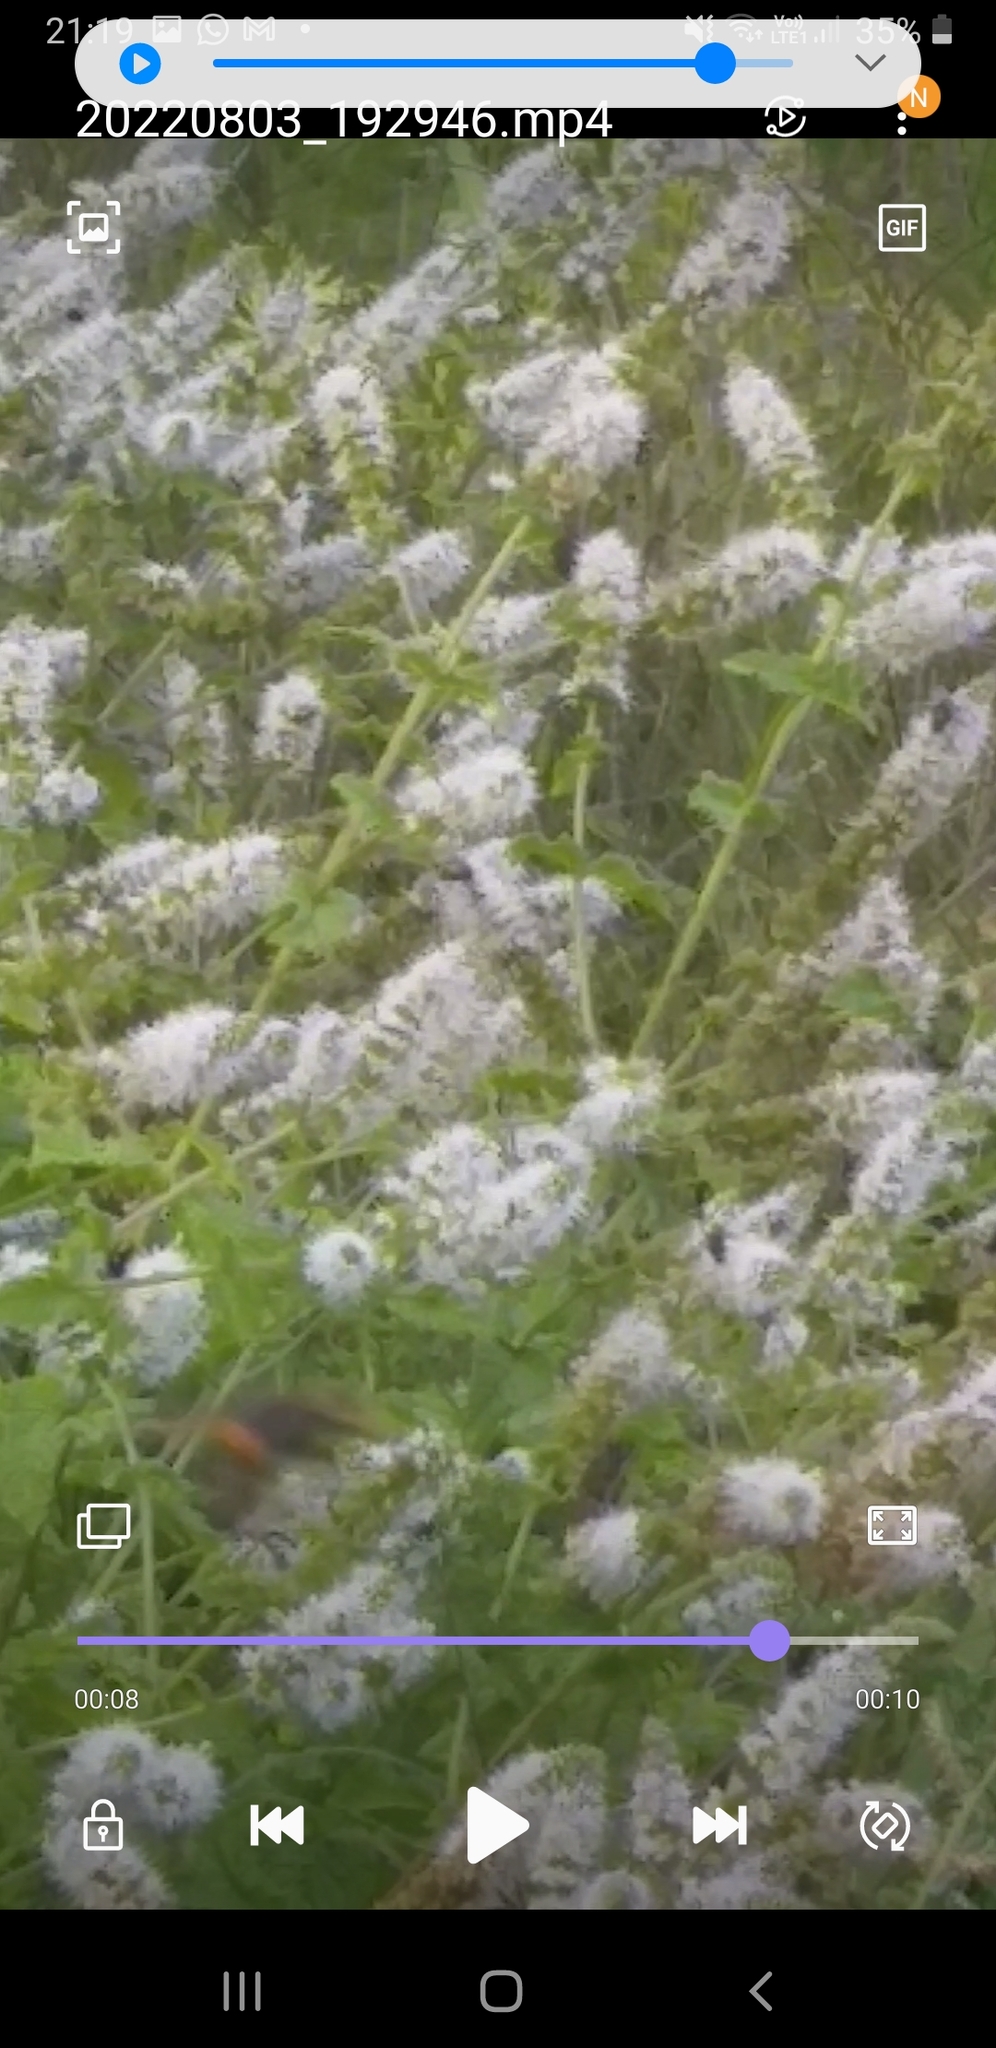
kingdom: Animalia
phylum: Arthropoda
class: Insecta
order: Hymenoptera
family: Vespidae
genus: Vespa
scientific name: Vespa velutina
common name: Asian hornet
